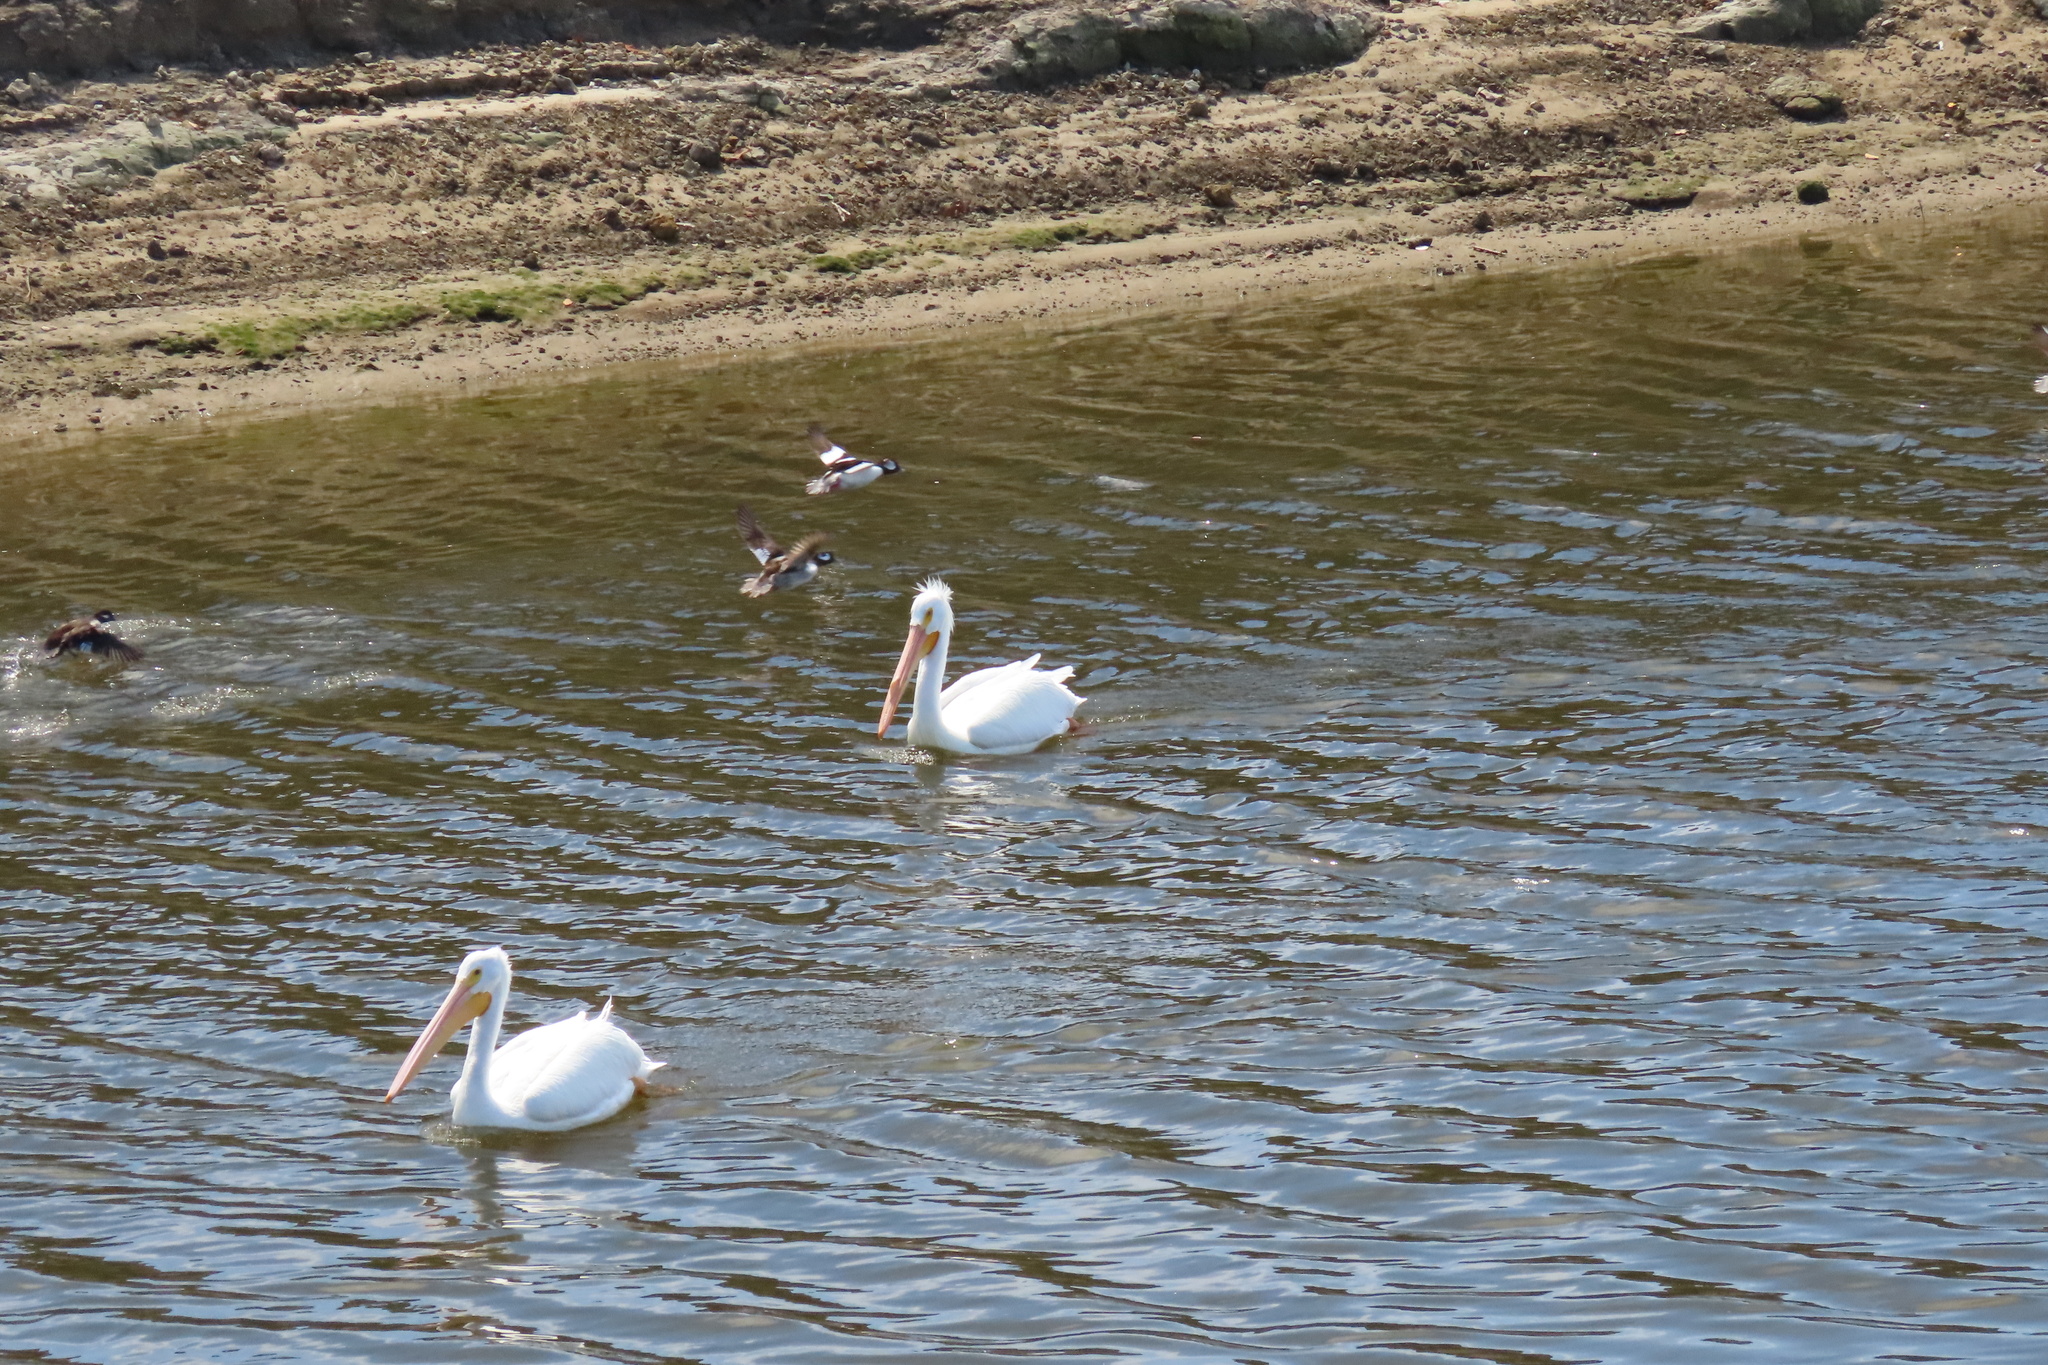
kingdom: Animalia
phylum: Chordata
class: Aves
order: Pelecaniformes
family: Pelecanidae
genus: Pelecanus
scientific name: Pelecanus erythrorhynchos
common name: American white pelican
